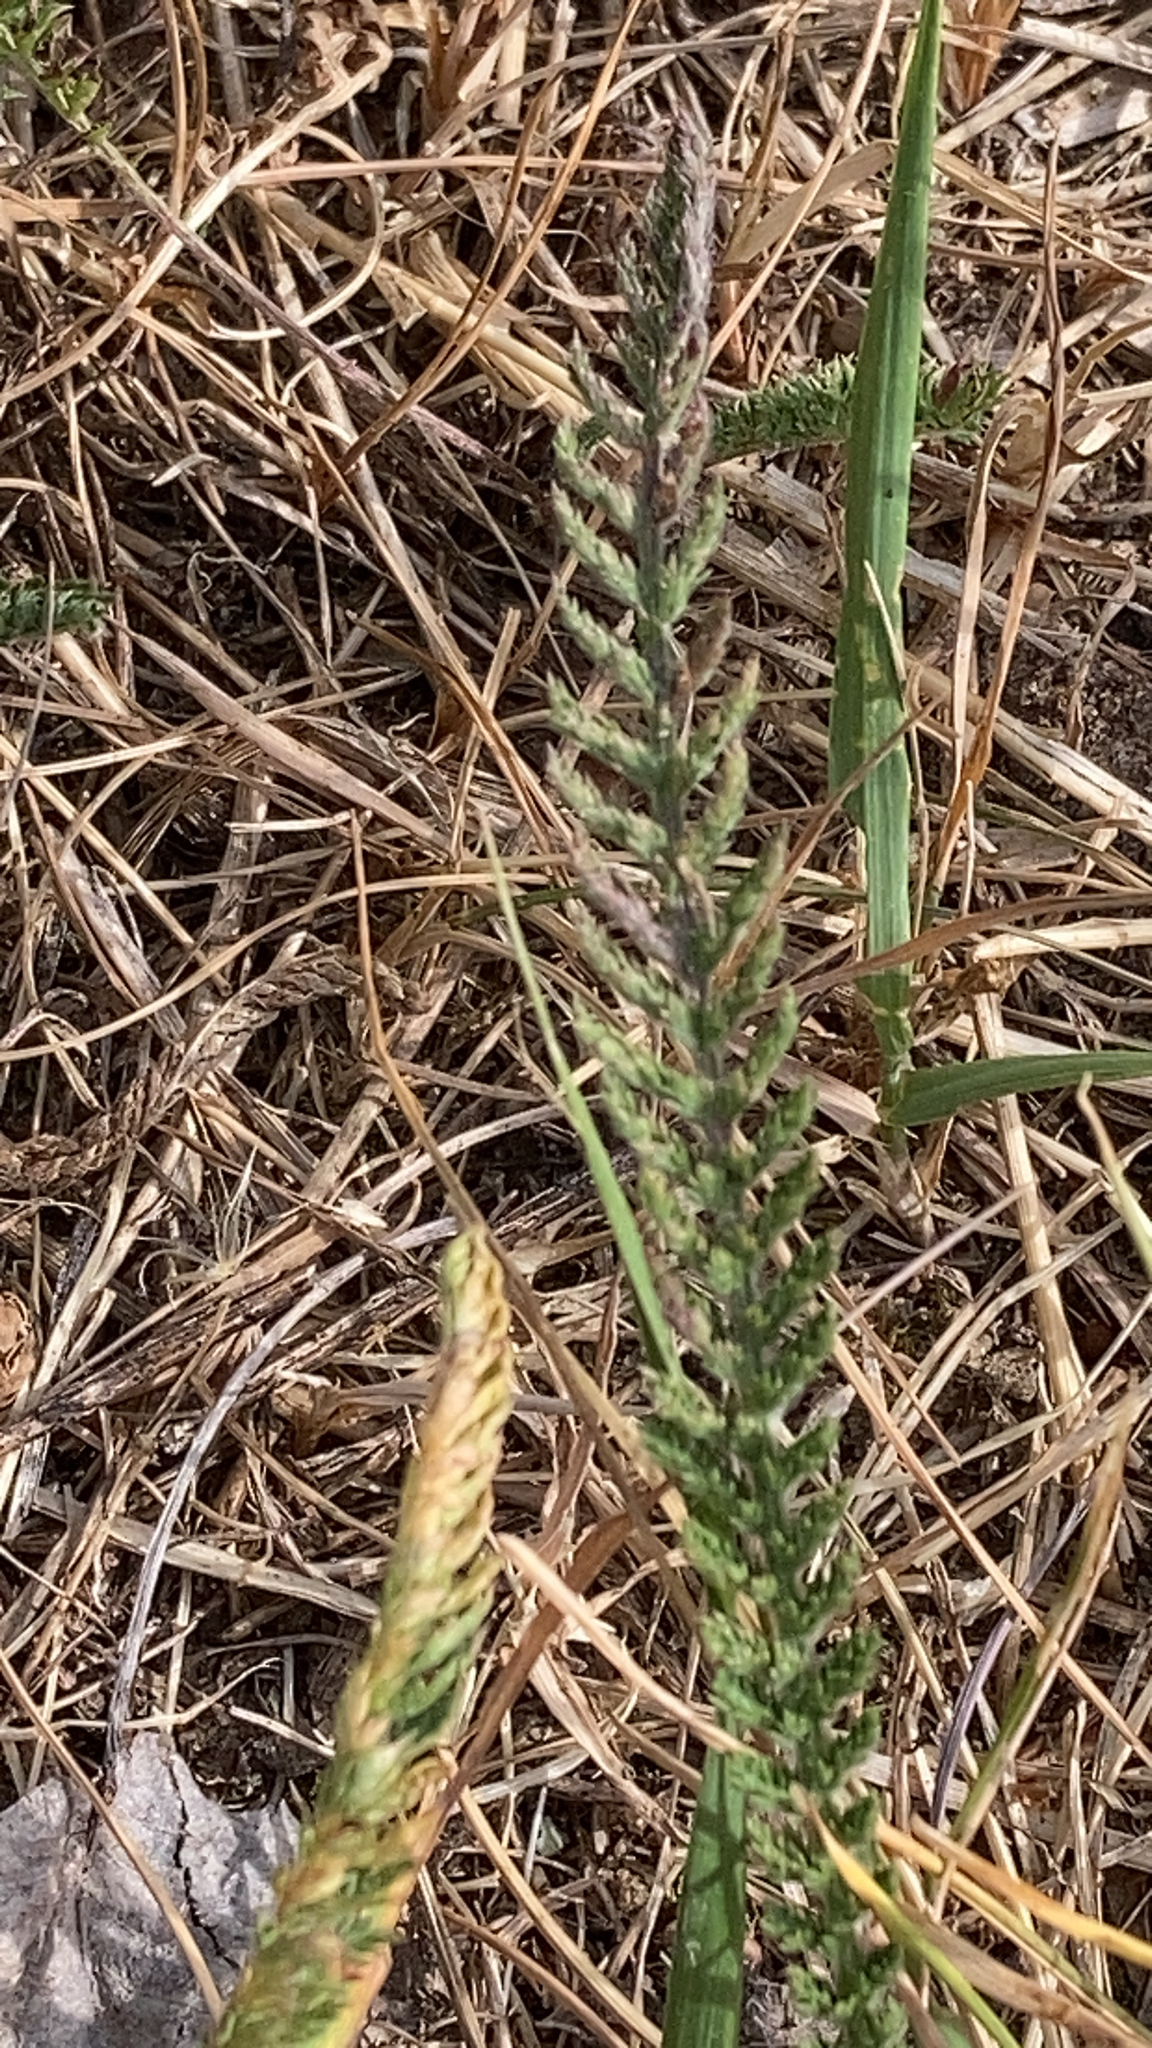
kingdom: Plantae
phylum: Tracheophyta
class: Magnoliopsida
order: Asterales
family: Asteraceae
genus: Achillea
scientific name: Achillea millefolium
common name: Yarrow
